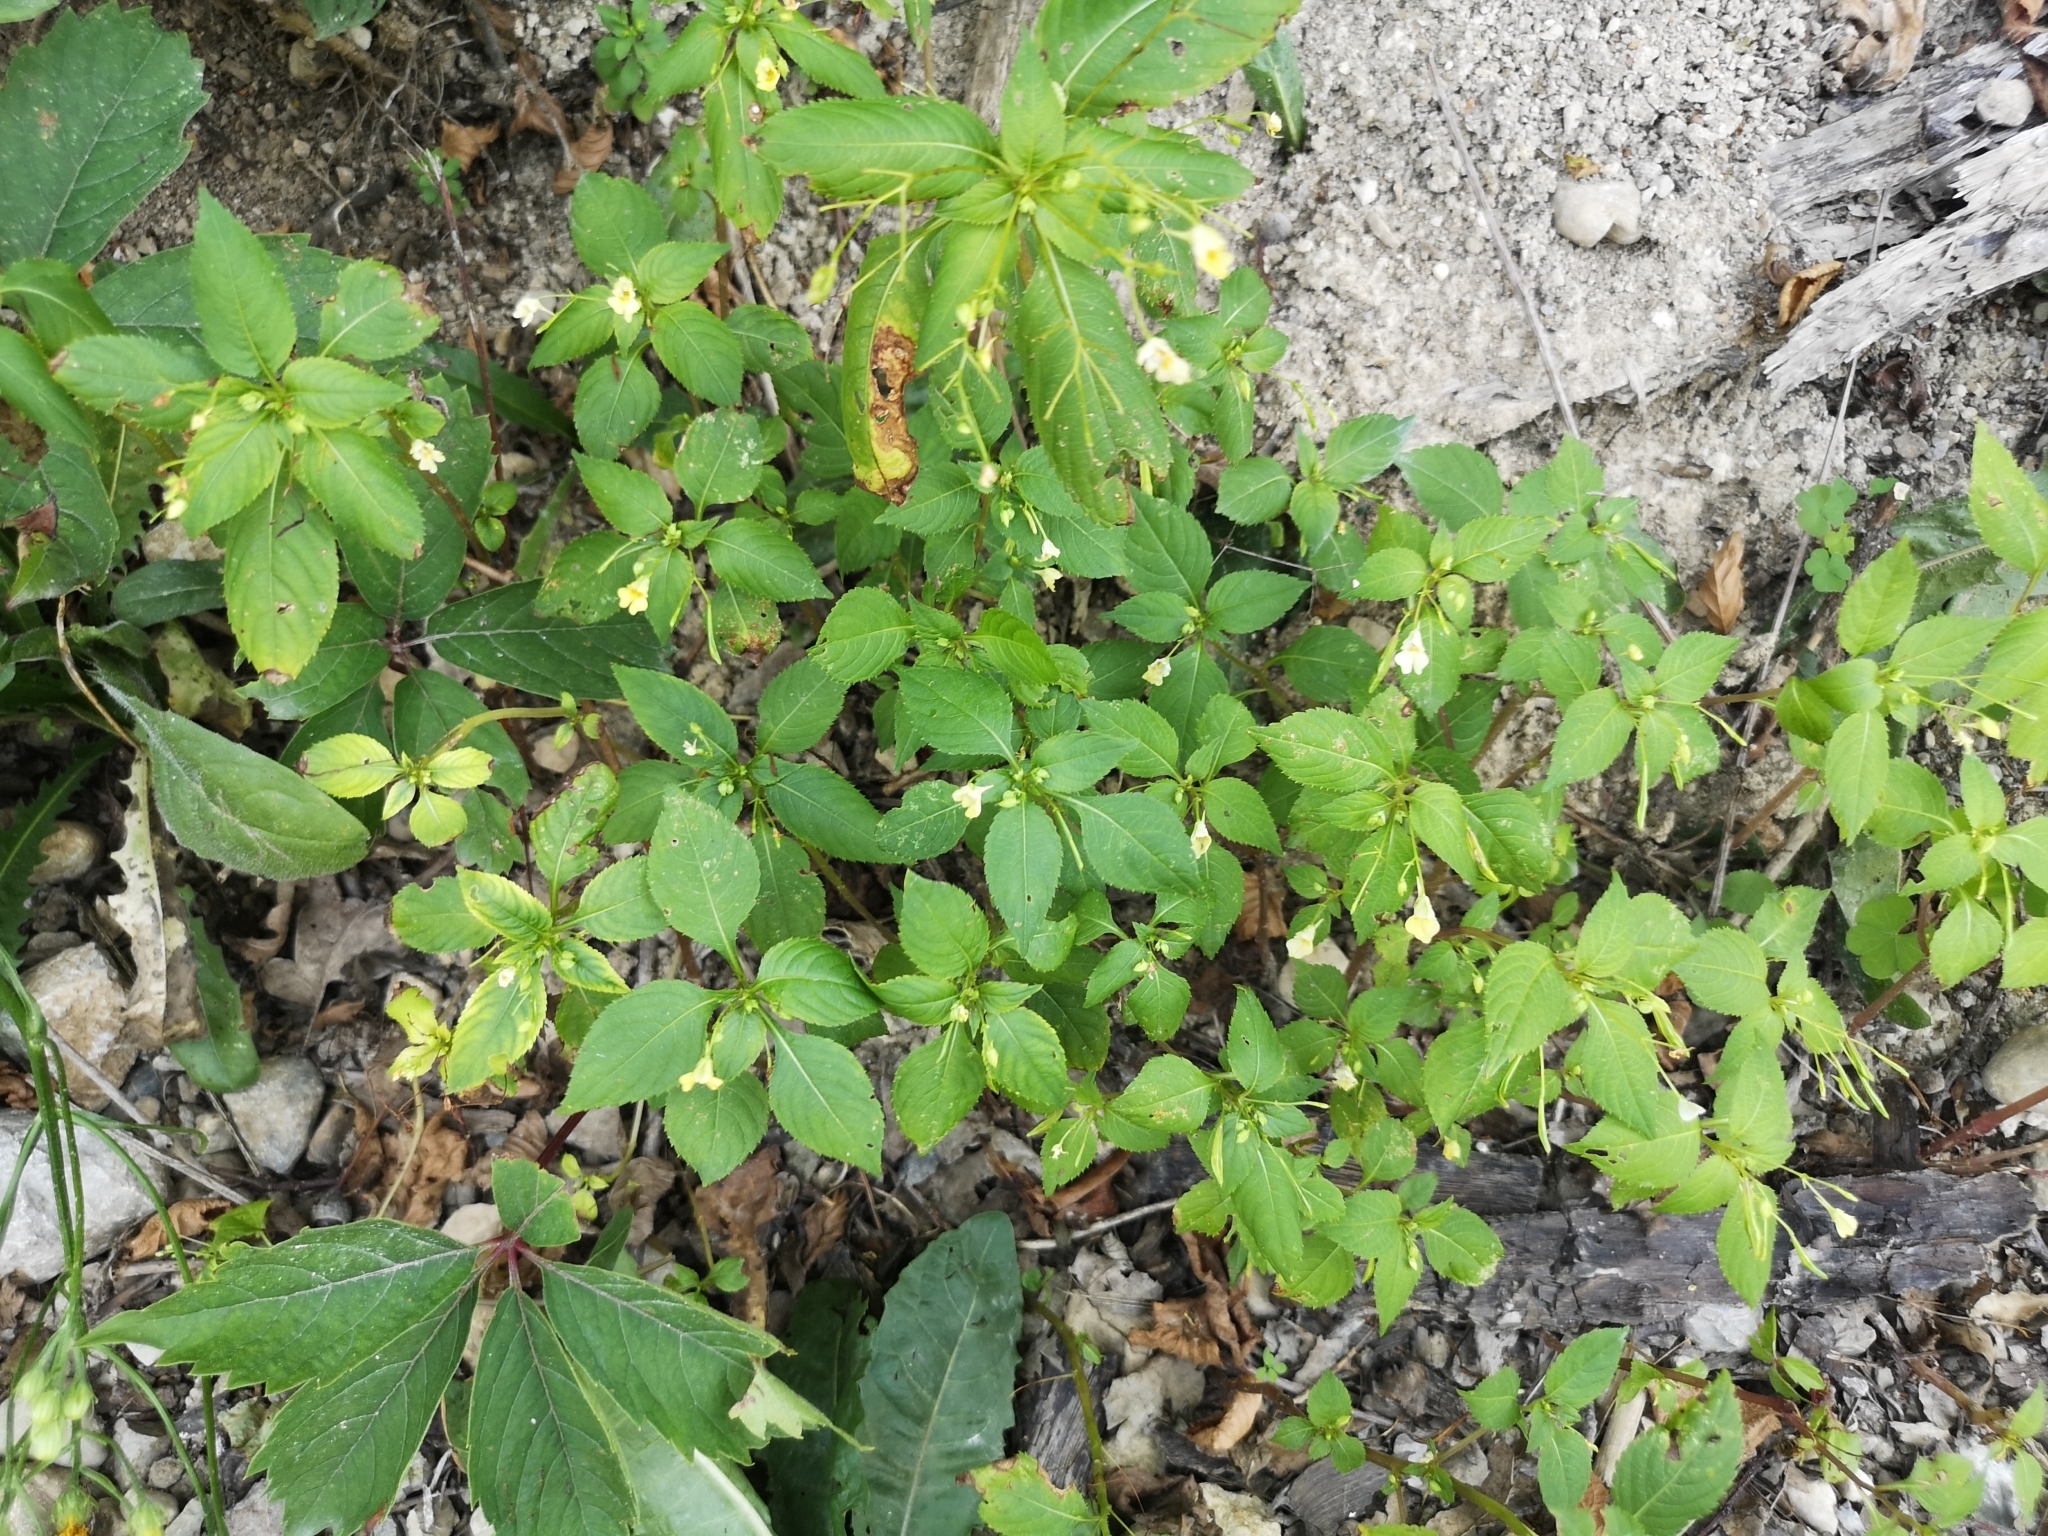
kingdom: Plantae
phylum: Tracheophyta
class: Magnoliopsida
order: Ericales
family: Balsaminaceae
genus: Impatiens
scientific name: Impatiens parviflora
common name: Small balsam
